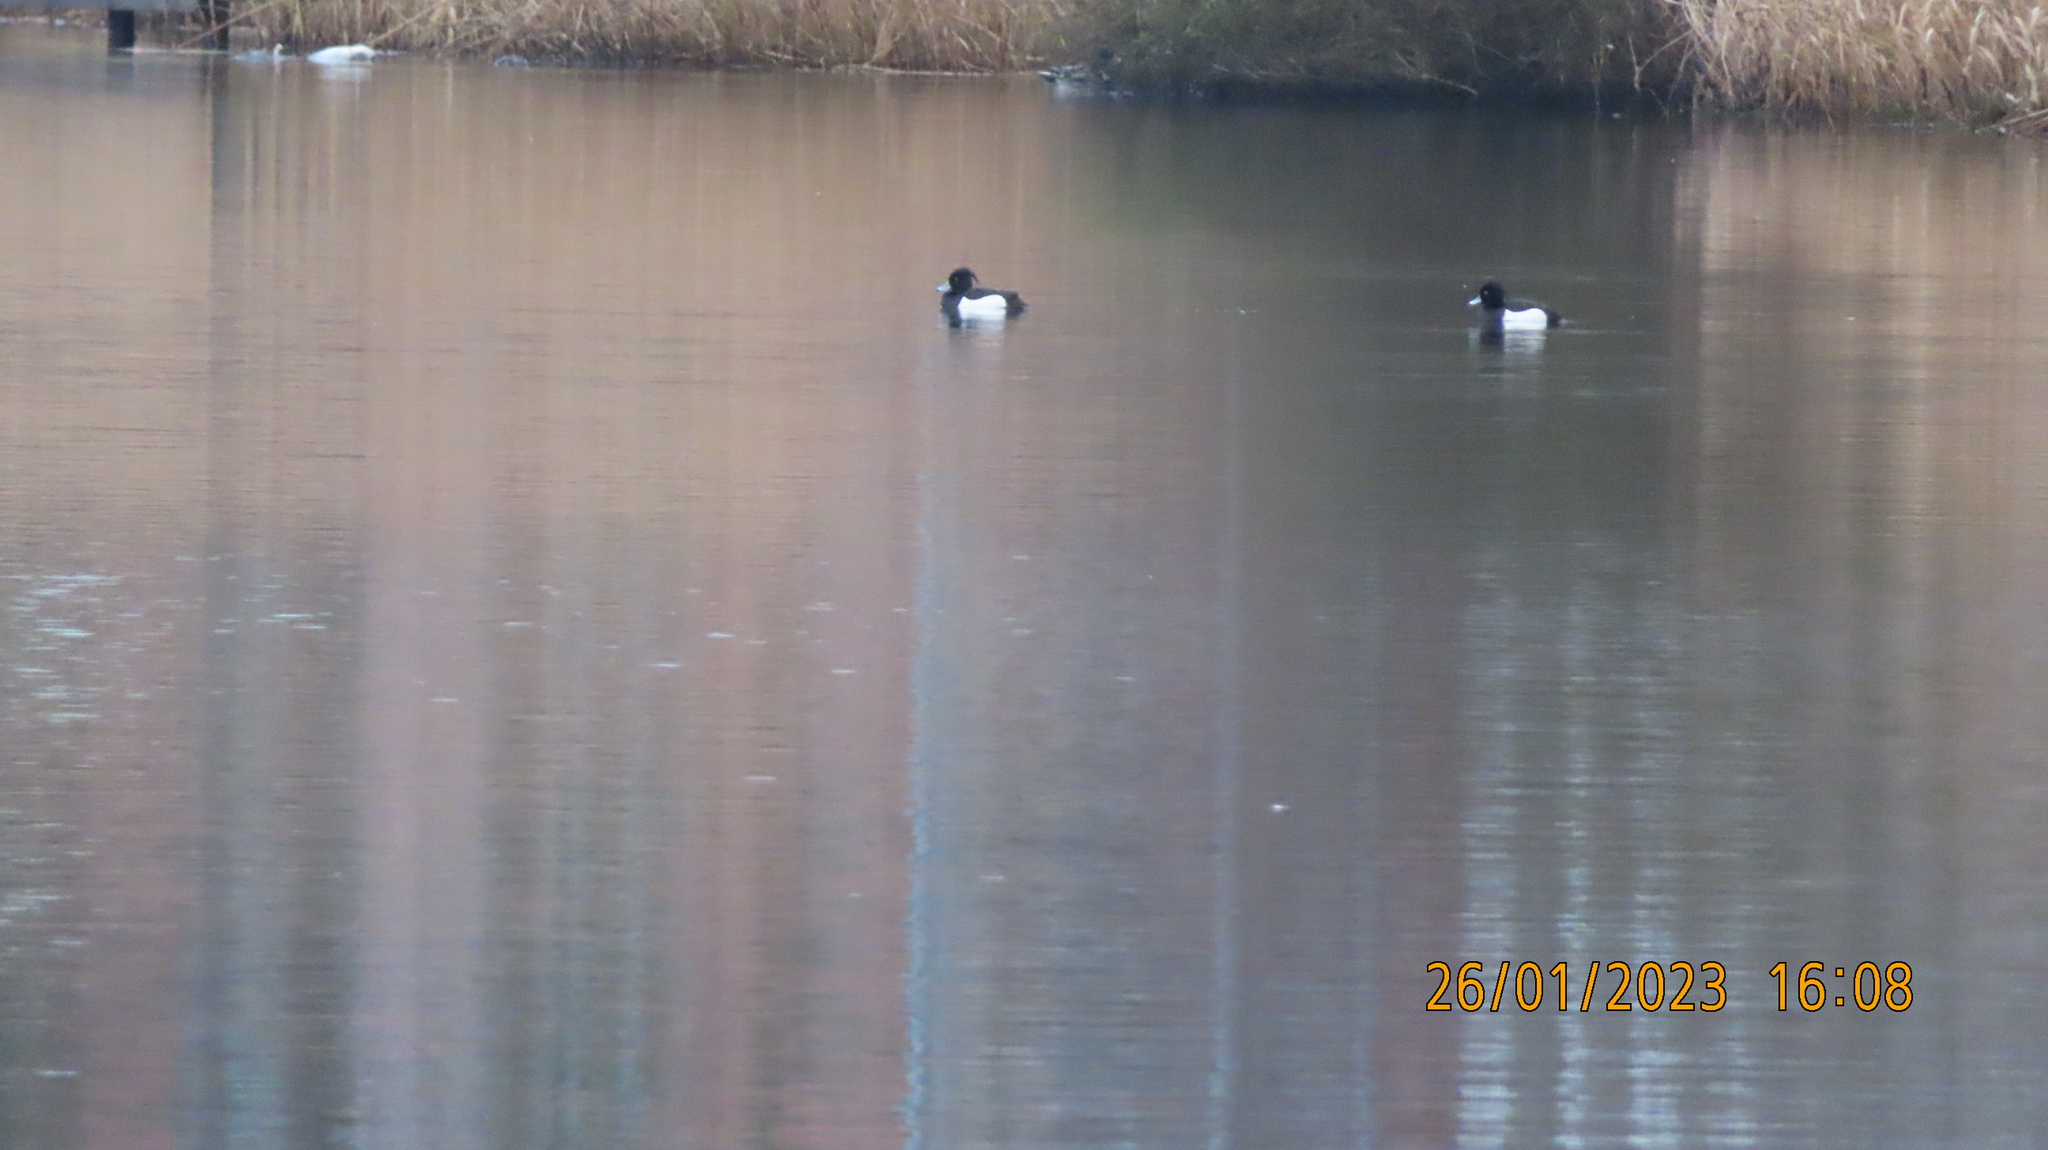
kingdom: Animalia
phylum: Chordata
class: Aves
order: Anseriformes
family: Anatidae
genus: Aythya
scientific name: Aythya fuligula
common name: Tufted duck
